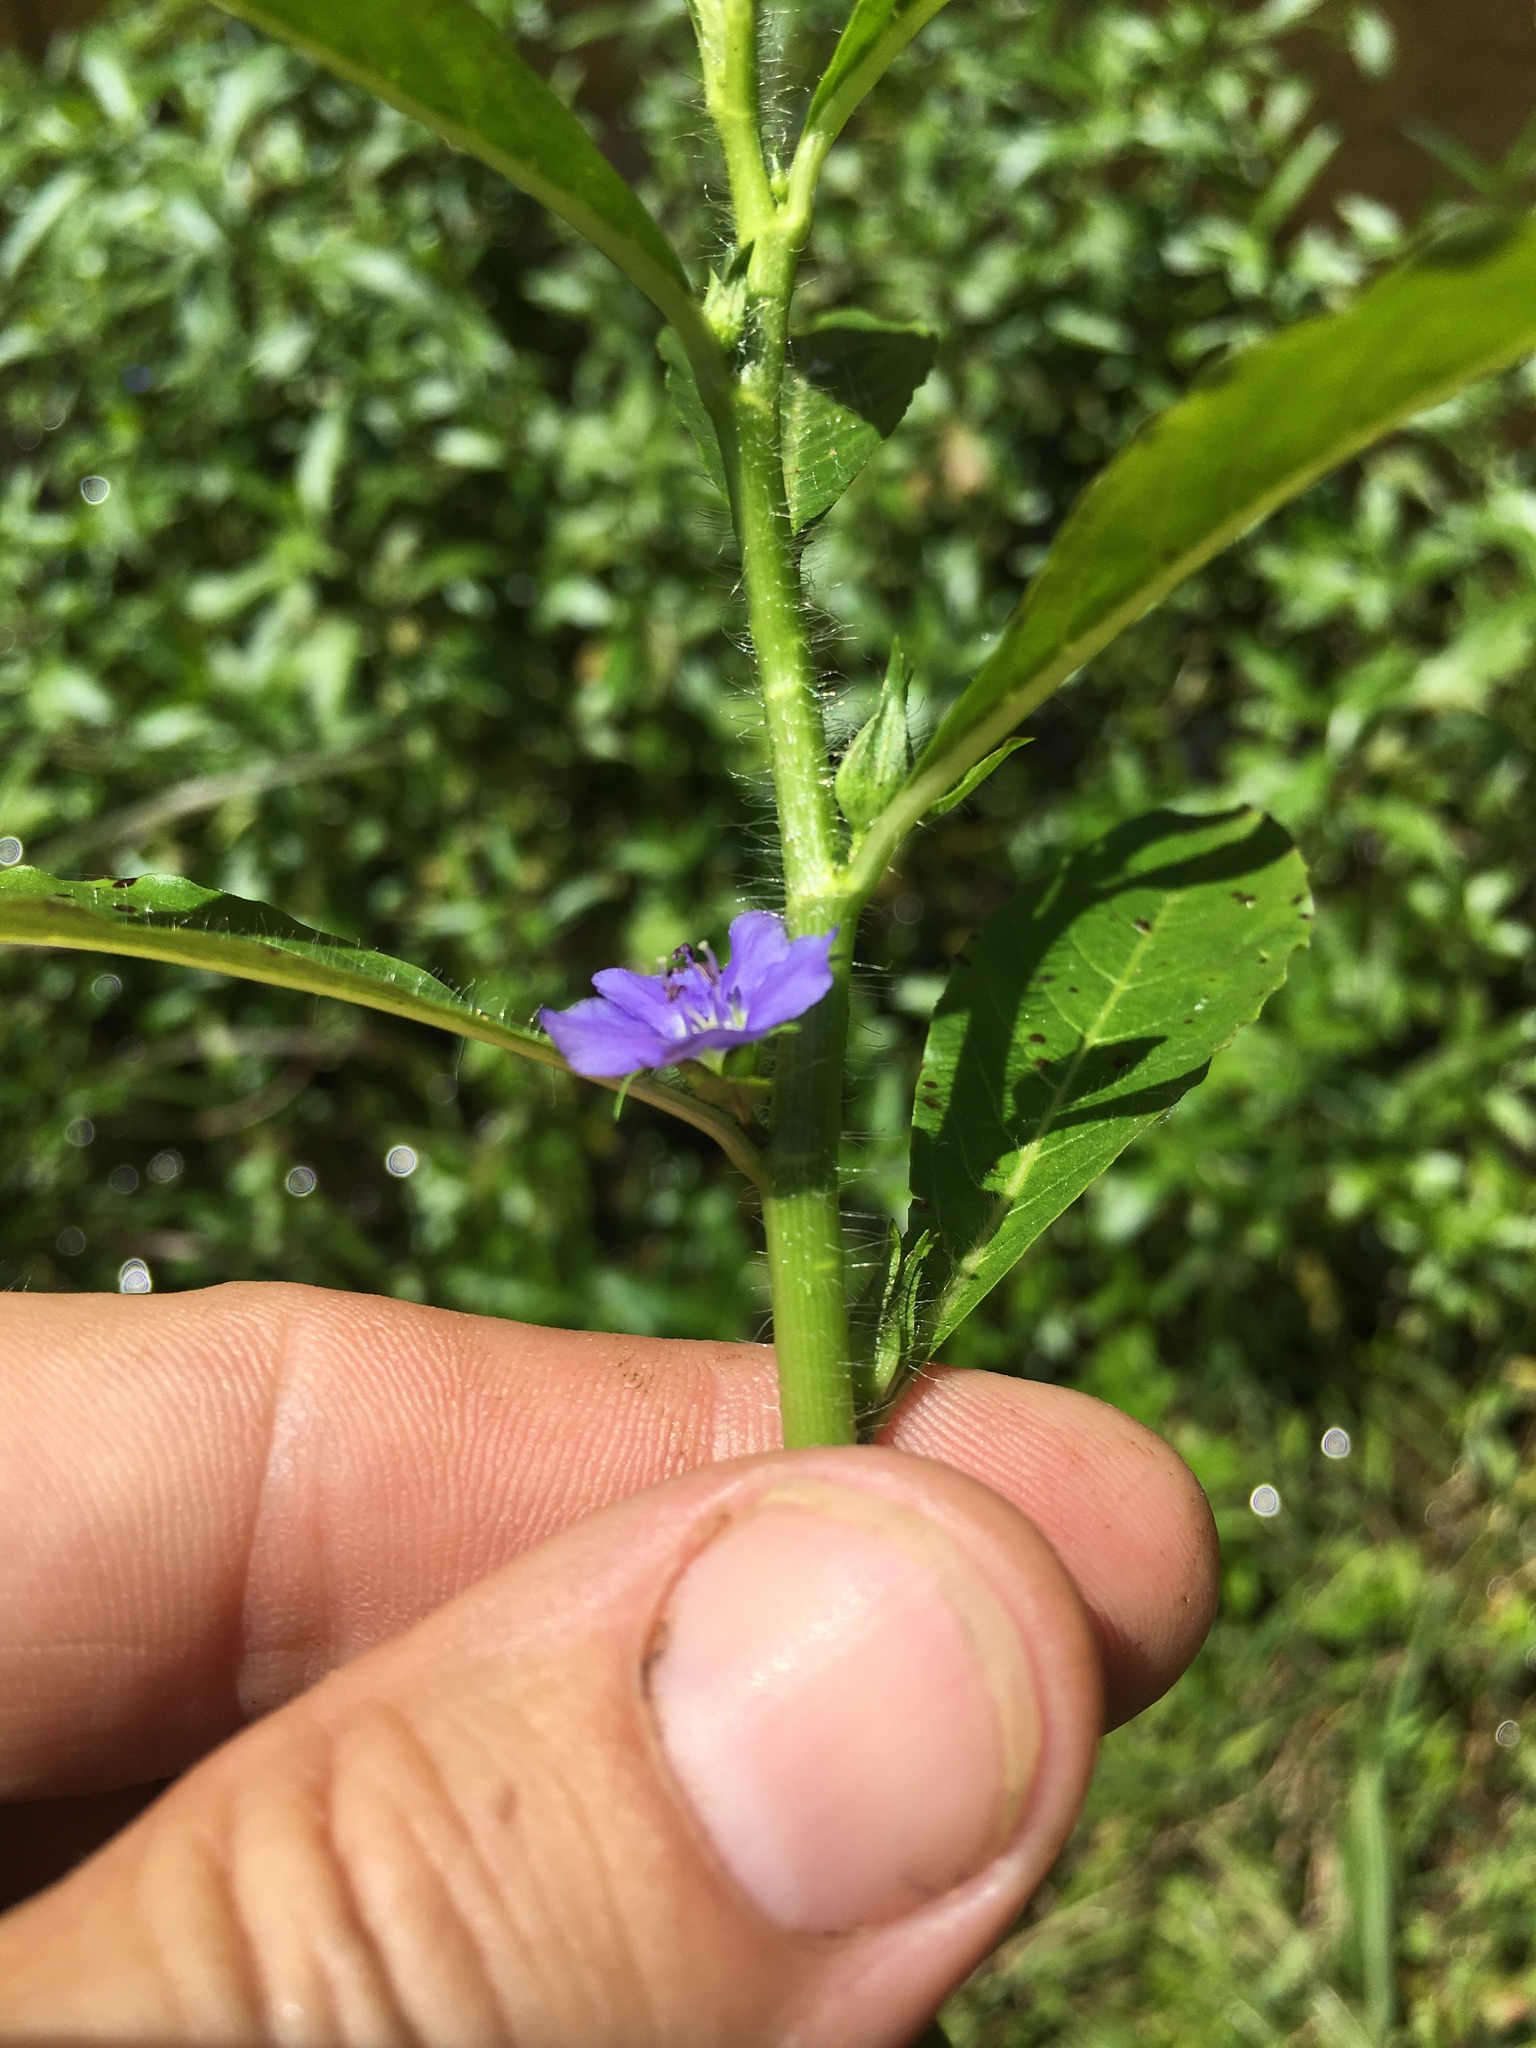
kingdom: Plantae
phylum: Tracheophyta
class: Magnoliopsida
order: Solanales
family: Hydroleaceae
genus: Hydrolea
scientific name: Hydrolea quadrivalvis
